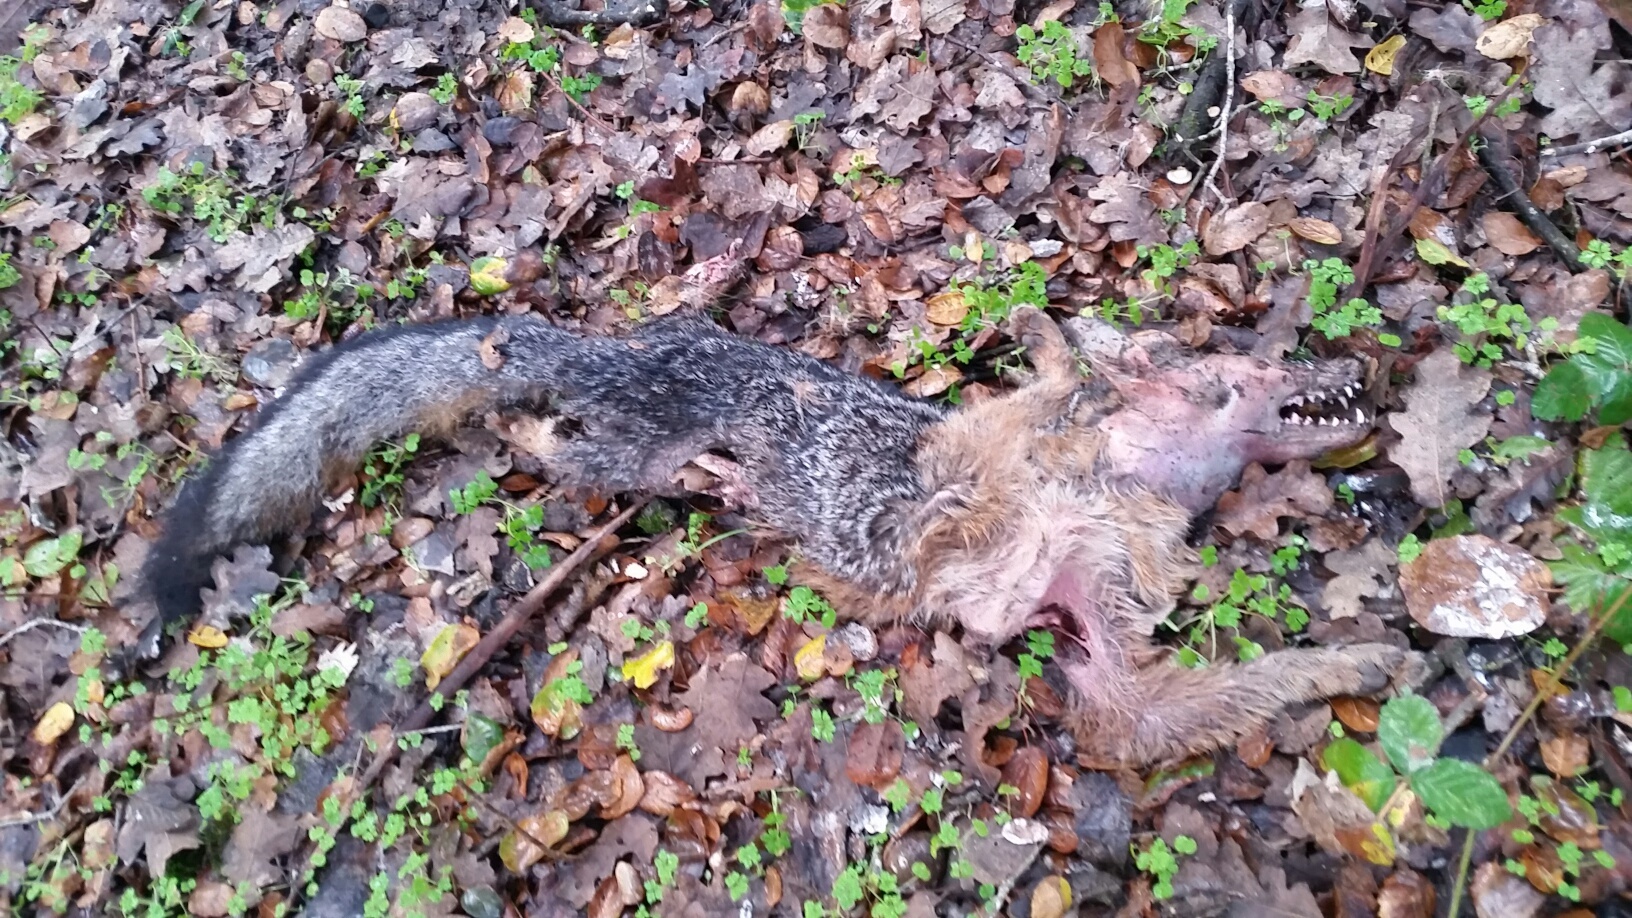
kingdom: Animalia
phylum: Chordata
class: Mammalia
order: Carnivora
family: Canidae
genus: Urocyon
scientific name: Urocyon cinereoargenteus
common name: Gray fox
